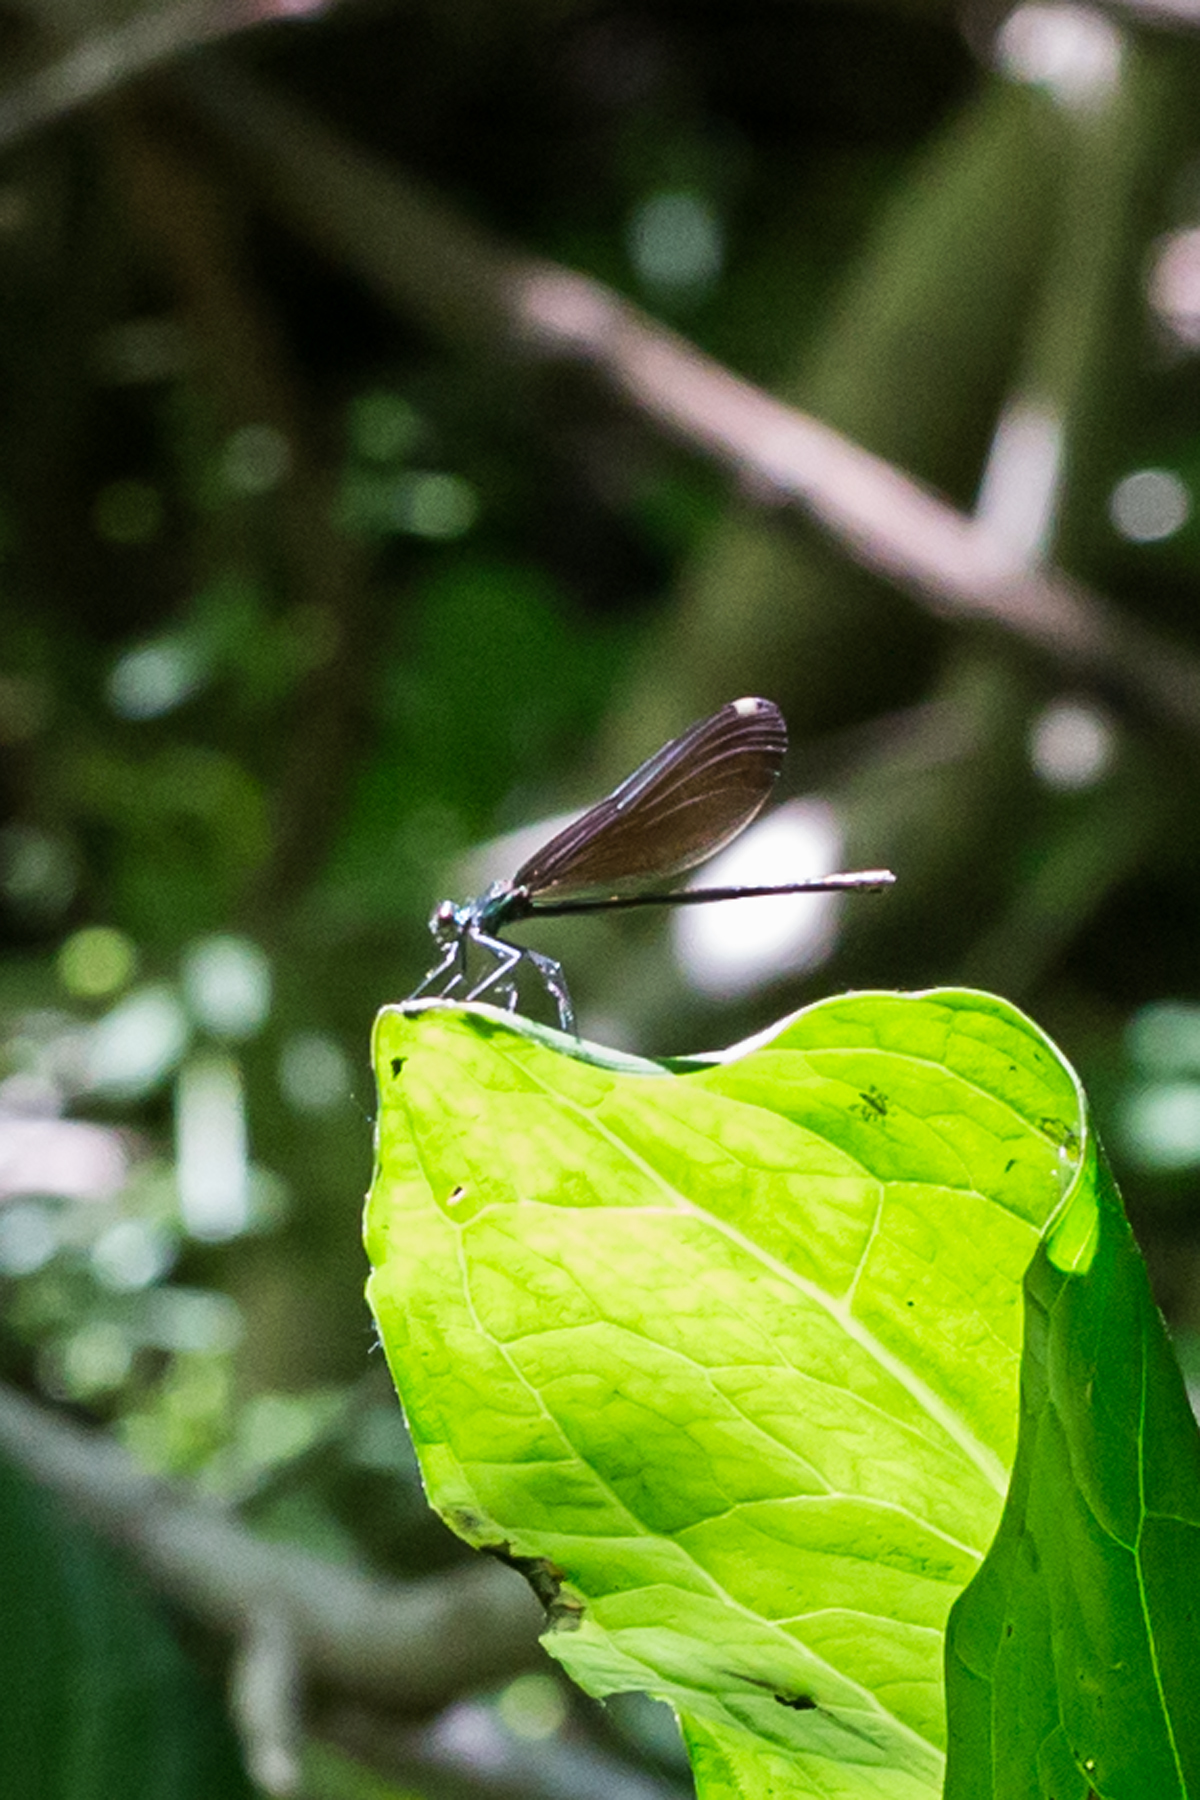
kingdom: Animalia
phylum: Arthropoda
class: Insecta
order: Odonata
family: Calopterygidae
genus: Calopteryx
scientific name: Calopteryx maculata
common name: Ebony jewelwing
